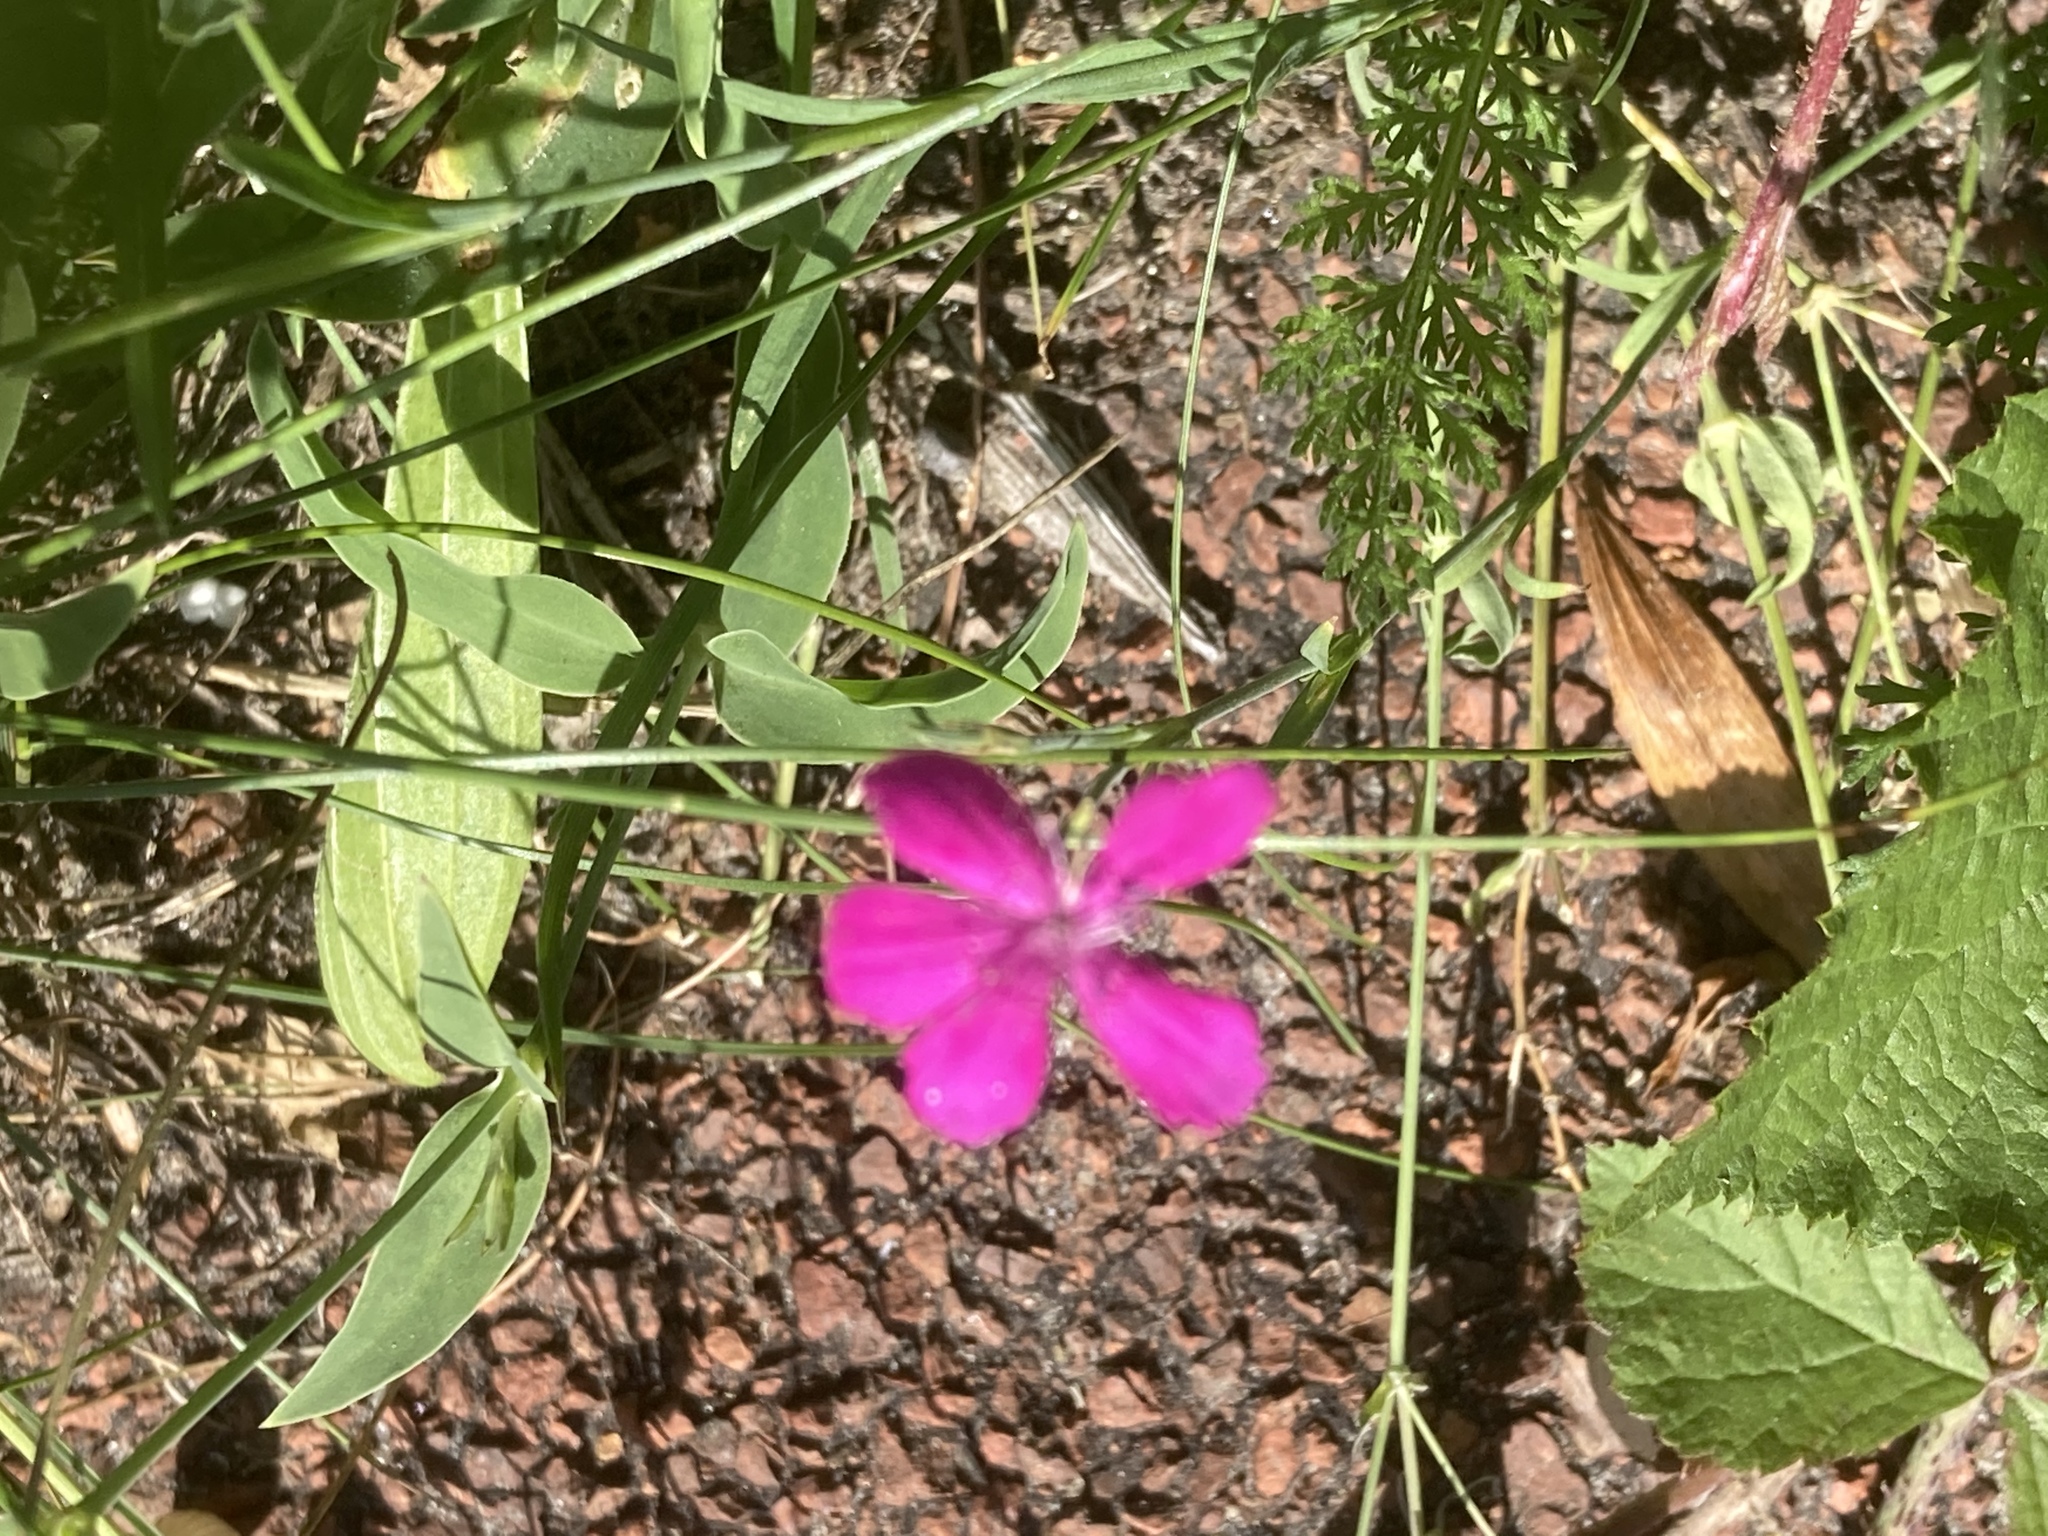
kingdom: Plantae
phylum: Tracheophyta
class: Magnoliopsida
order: Caryophyllales
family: Caryophyllaceae
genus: Dianthus
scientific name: Dianthus deltoides
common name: Maiden pink
